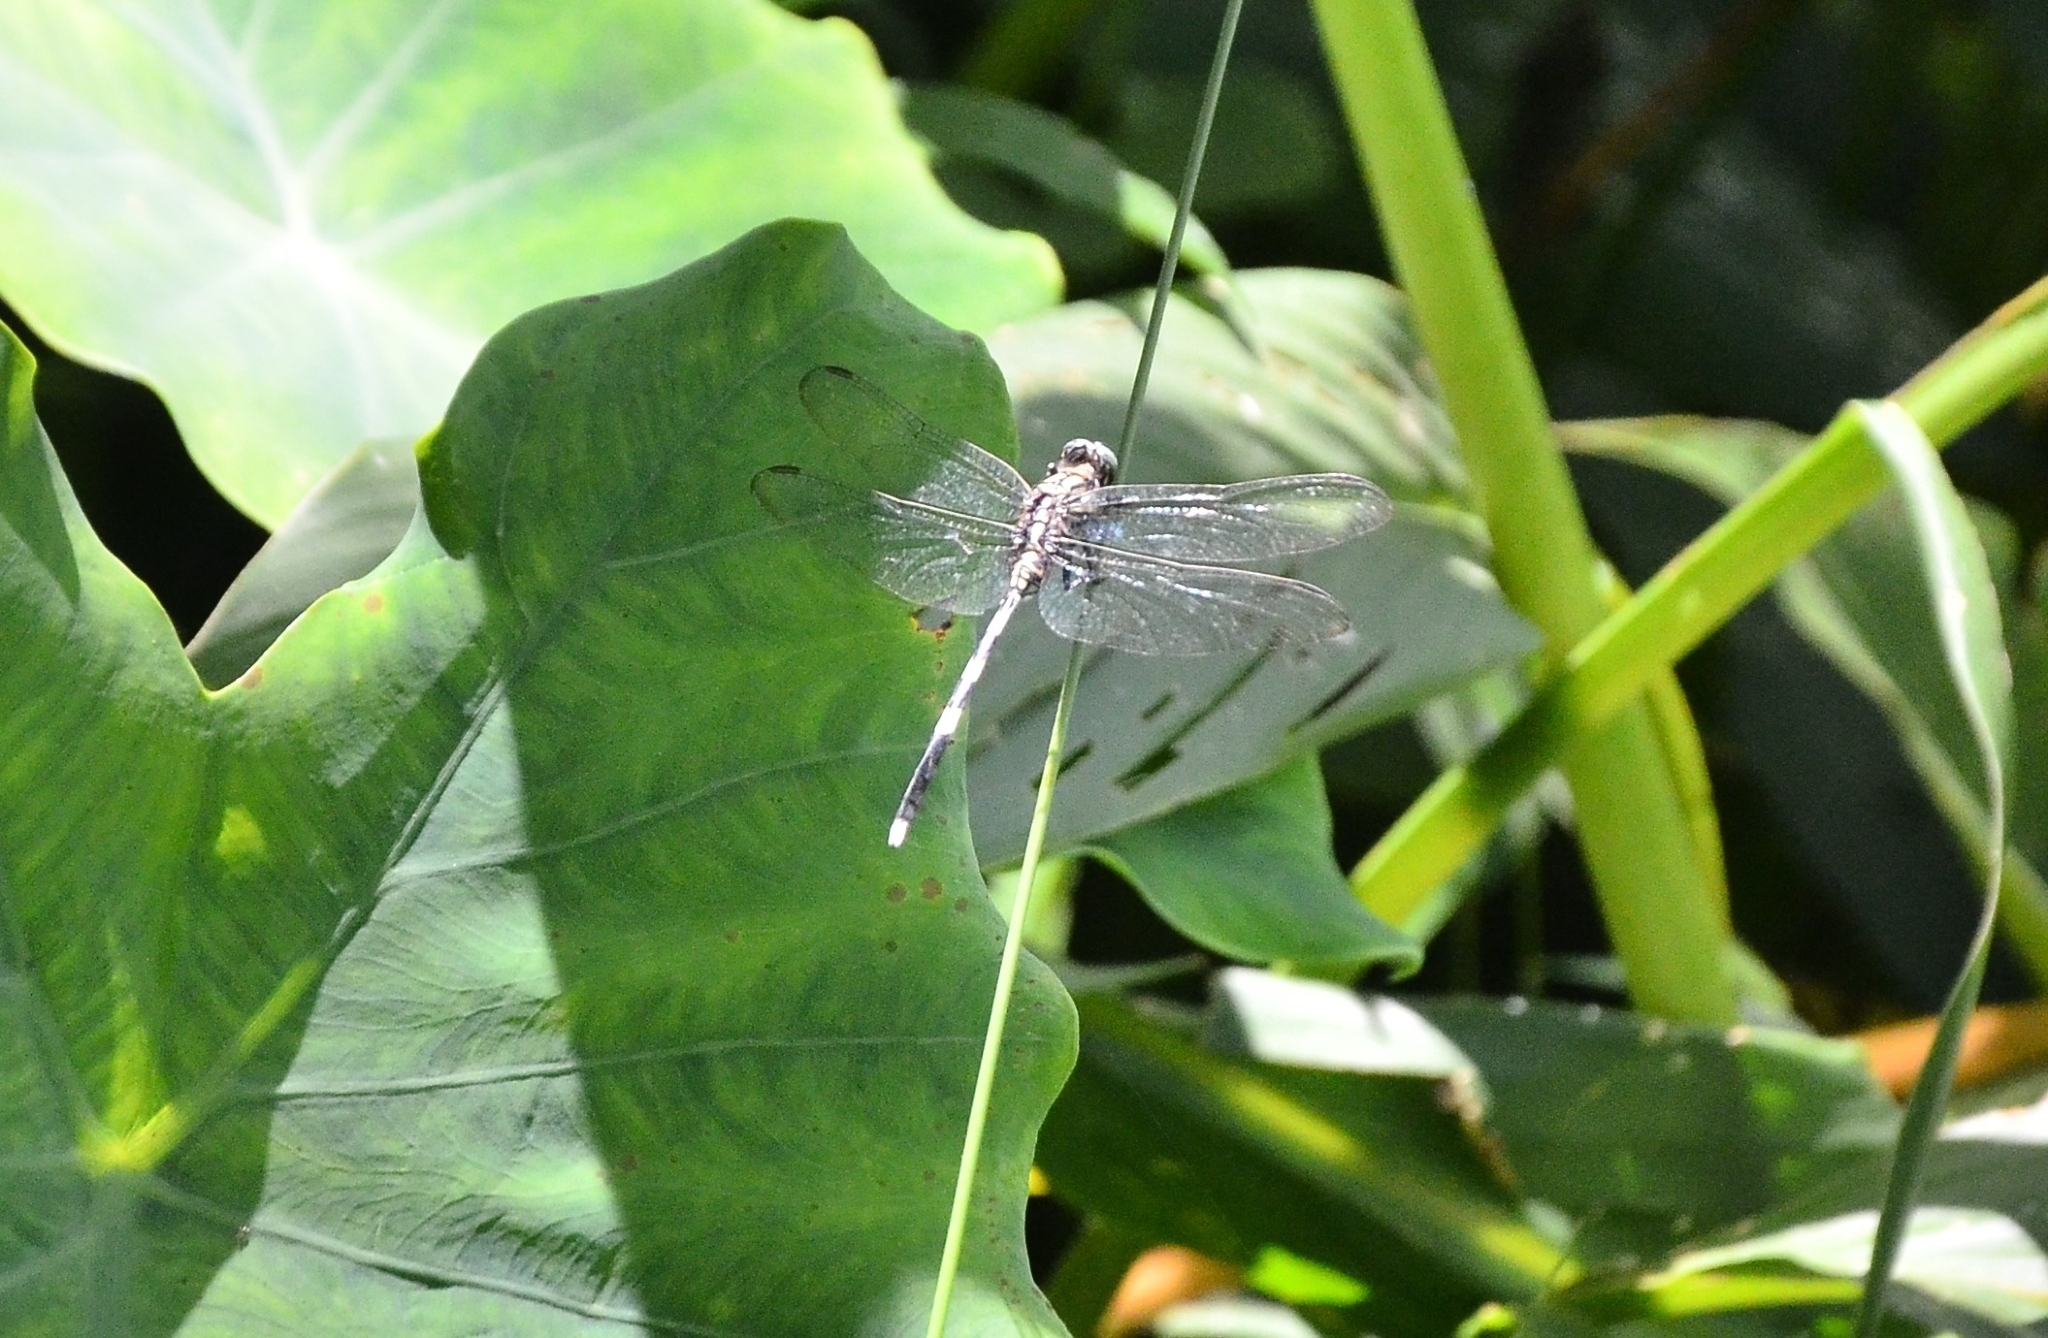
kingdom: Animalia
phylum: Arthropoda
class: Insecta
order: Odonata
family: Libellulidae
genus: Orthetrum
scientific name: Orthetrum sabina
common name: Slender skimmer
